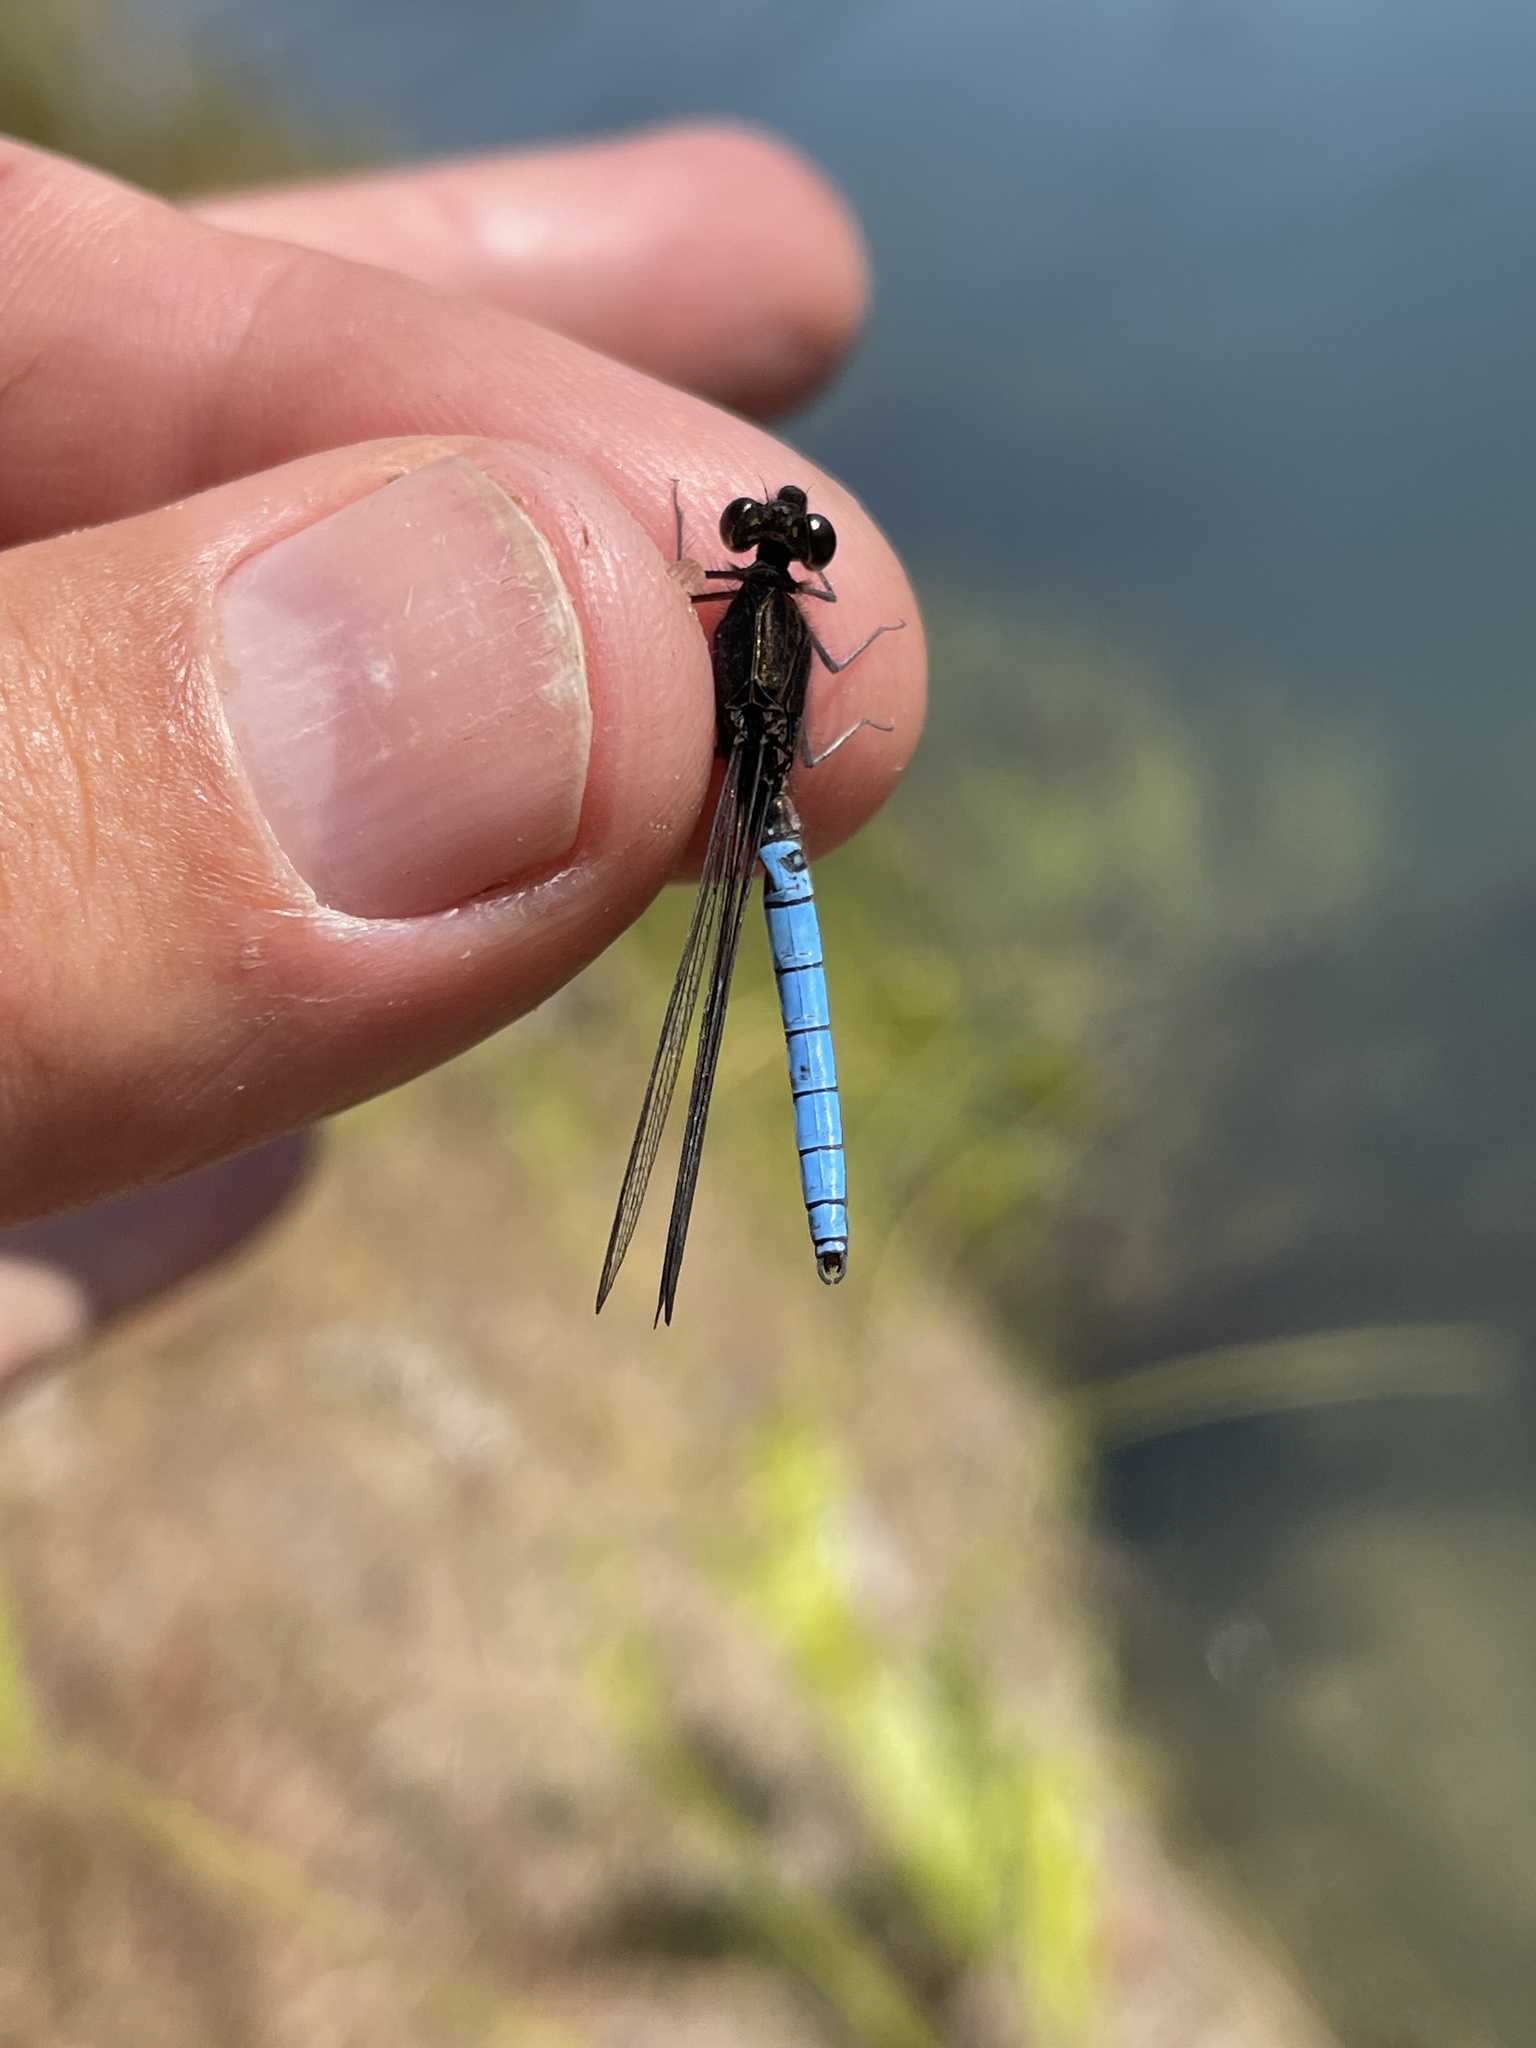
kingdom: Animalia
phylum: Arthropoda
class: Insecta
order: Odonata
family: Chlorocyphidae
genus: Platycypha
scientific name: Platycypha bamptoni
